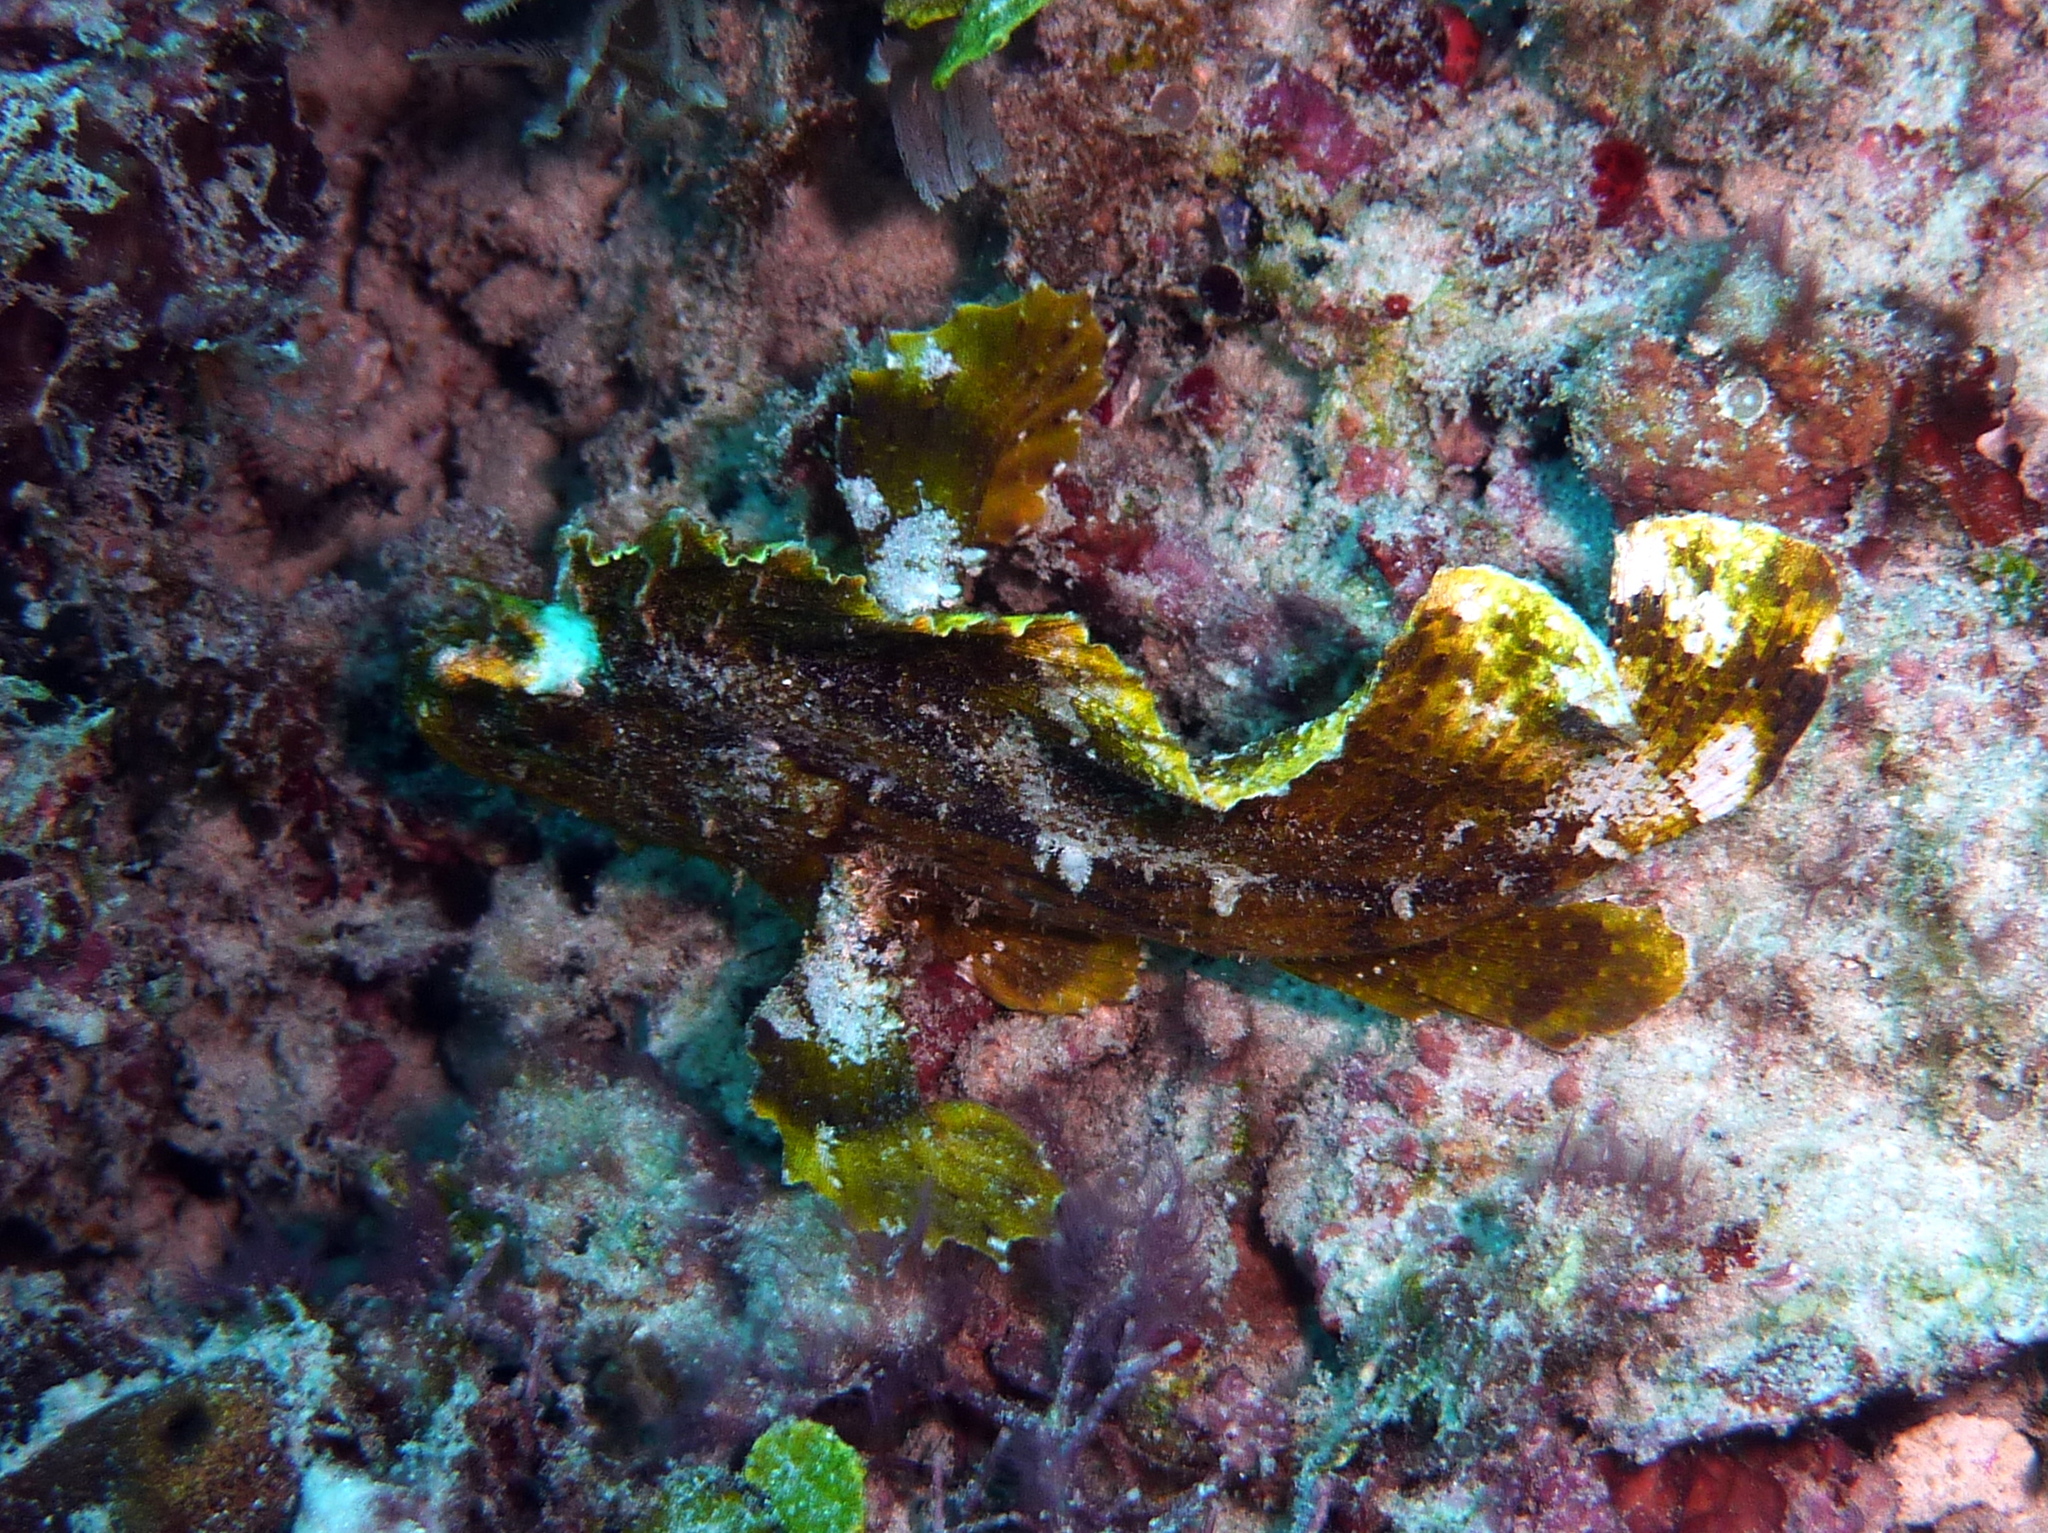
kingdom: Animalia
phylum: Chordata
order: Scorpaeniformes
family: Scorpaenidae
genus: Taenianotus
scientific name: Taenianotus triacanthus
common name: Leaf scorpionfish
